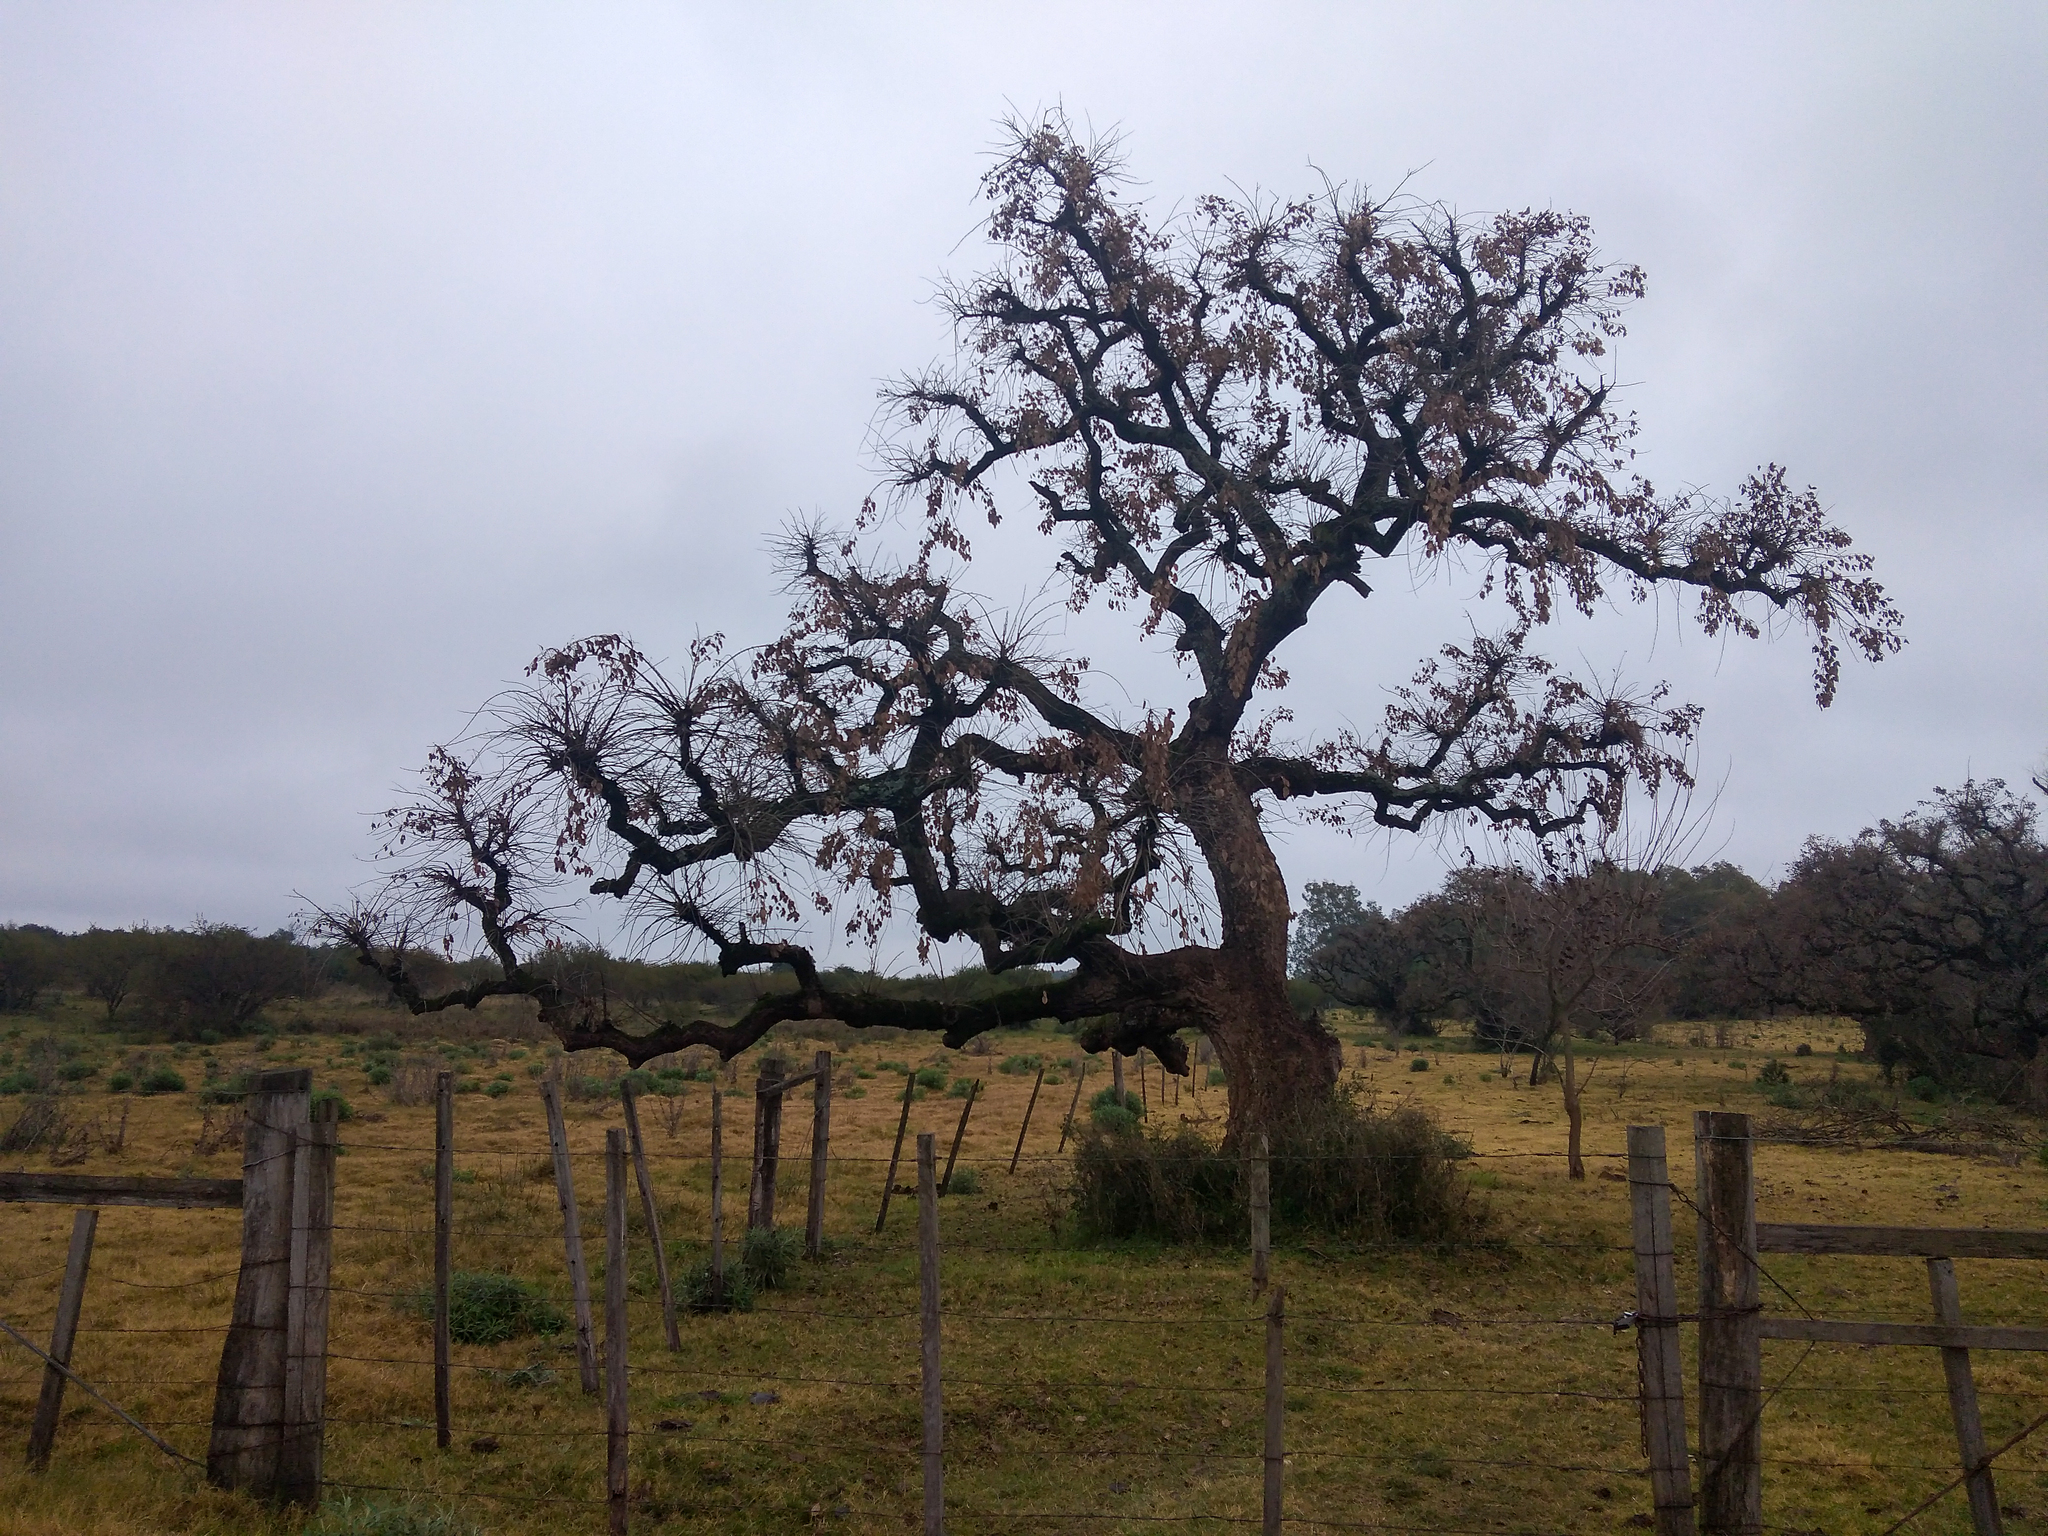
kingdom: Plantae
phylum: Tracheophyta
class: Magnoliopsida
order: Fabales
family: Fabaceae
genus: Erythrina
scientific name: Erythrina crista-galli
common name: Cockspur coral tree
